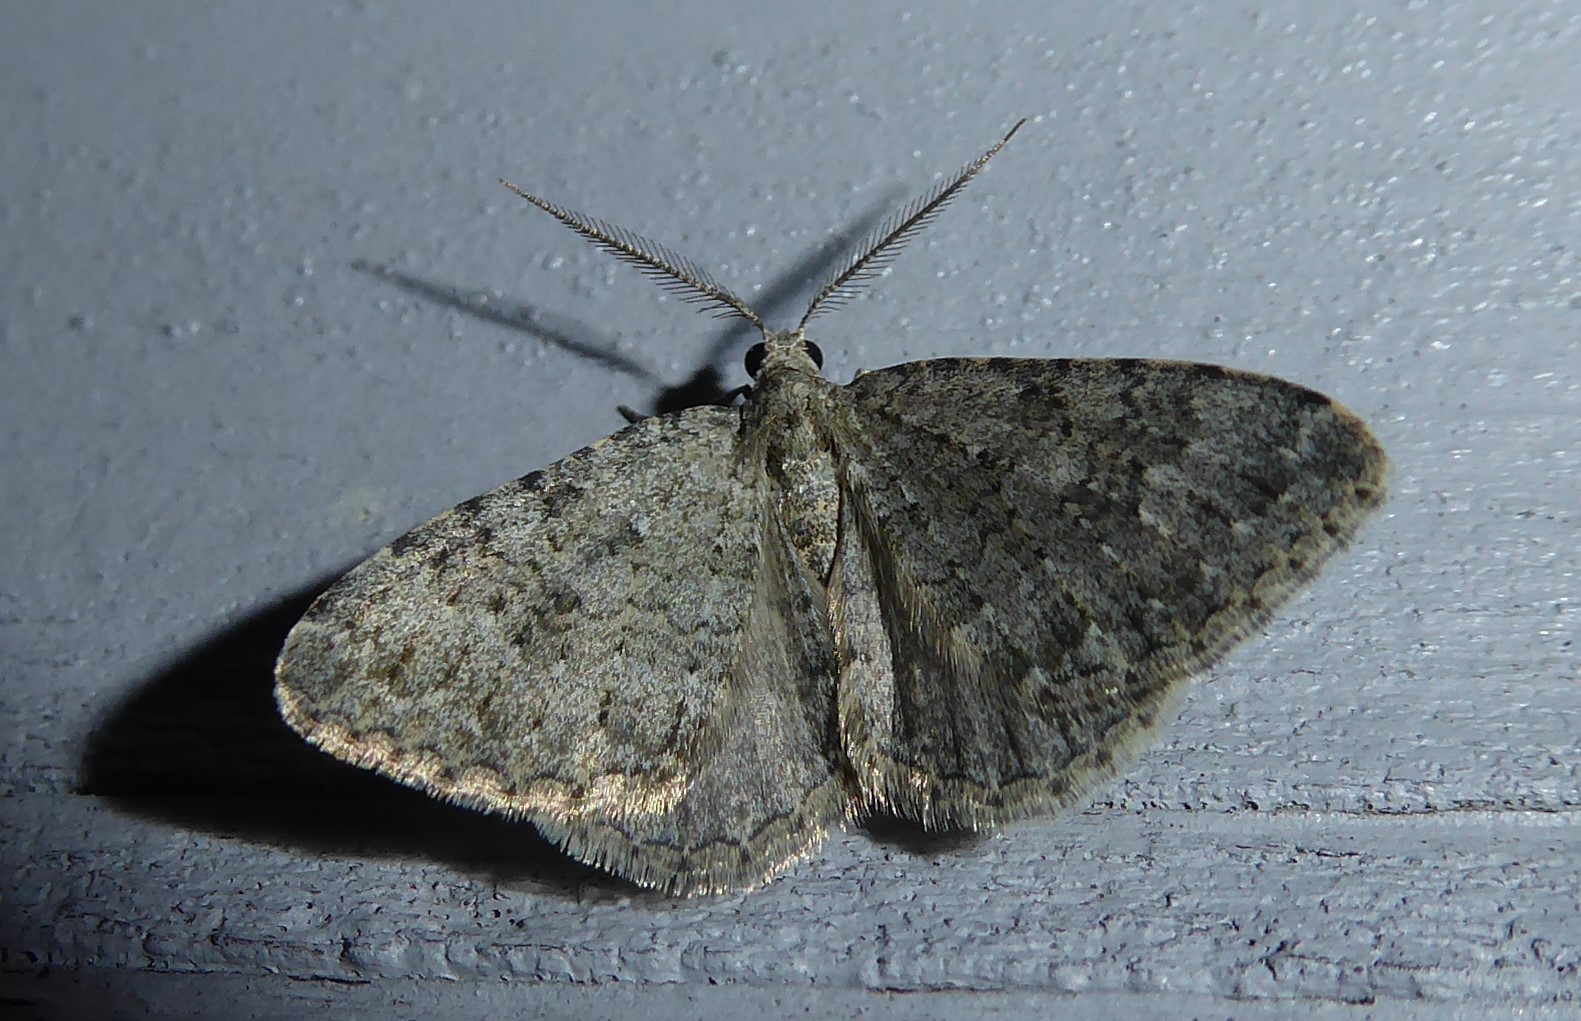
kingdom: Animalia
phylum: Arthropoda
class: Insecta
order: Lepidoptera
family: Geometridae
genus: Helastia
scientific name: Helastia corcularia
